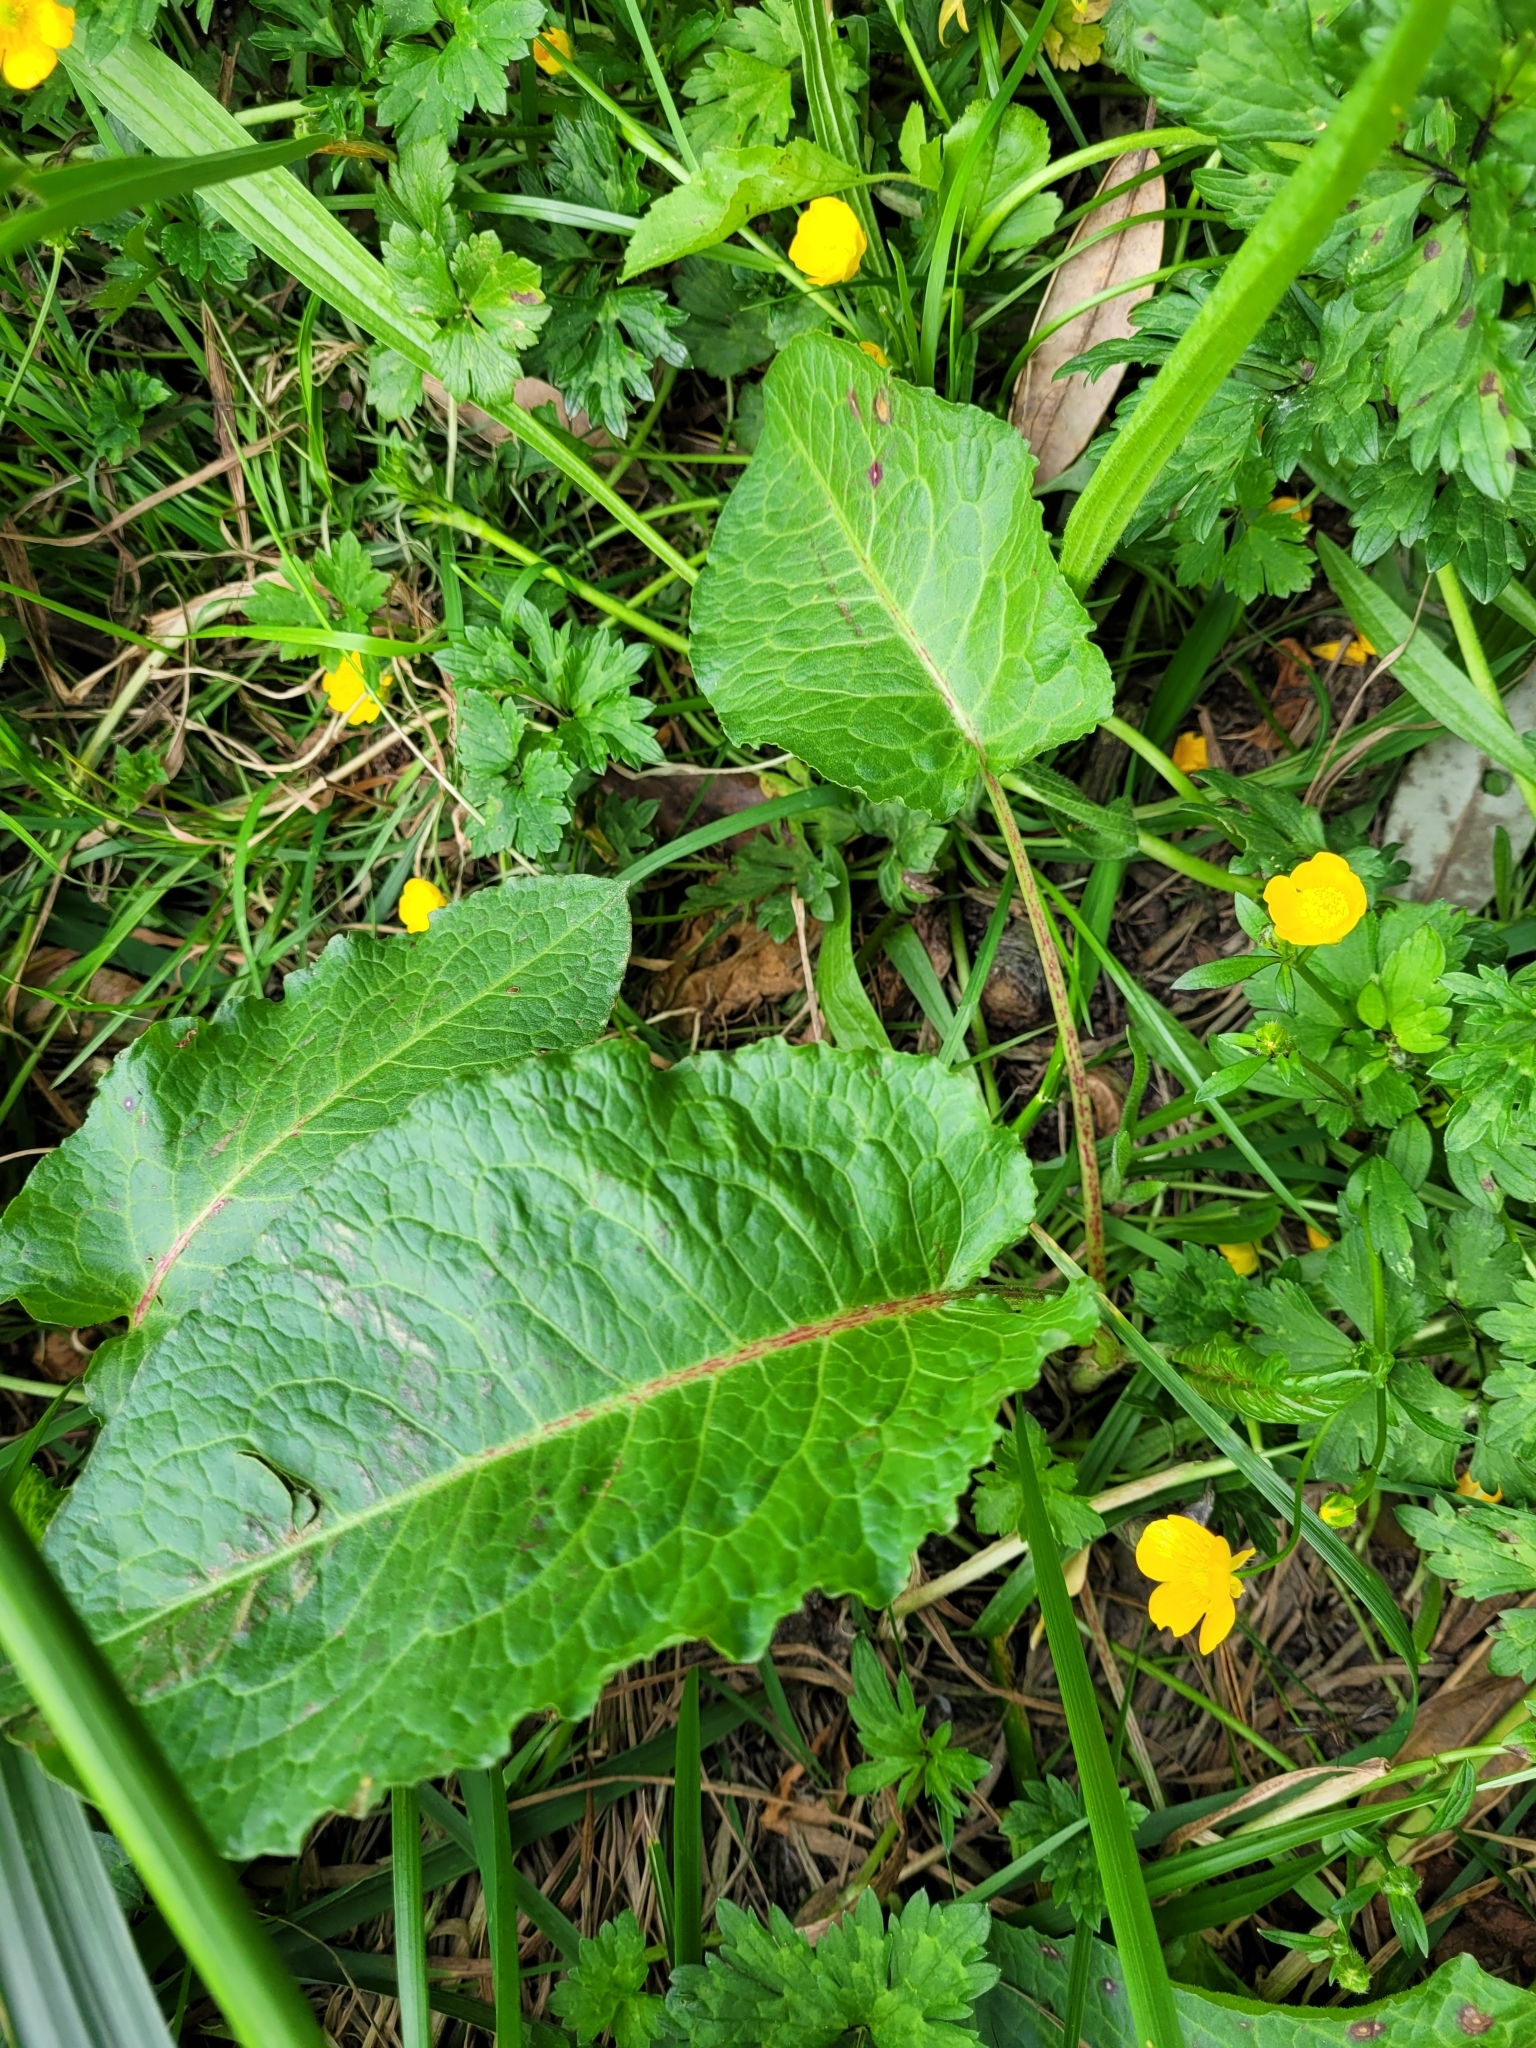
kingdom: Plantae
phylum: Tracheophyta
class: Magnoliopsida
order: Caryophyllales
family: Polygonaceae
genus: Rumex
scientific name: Rumex obtusifolius
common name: Bitter dock
